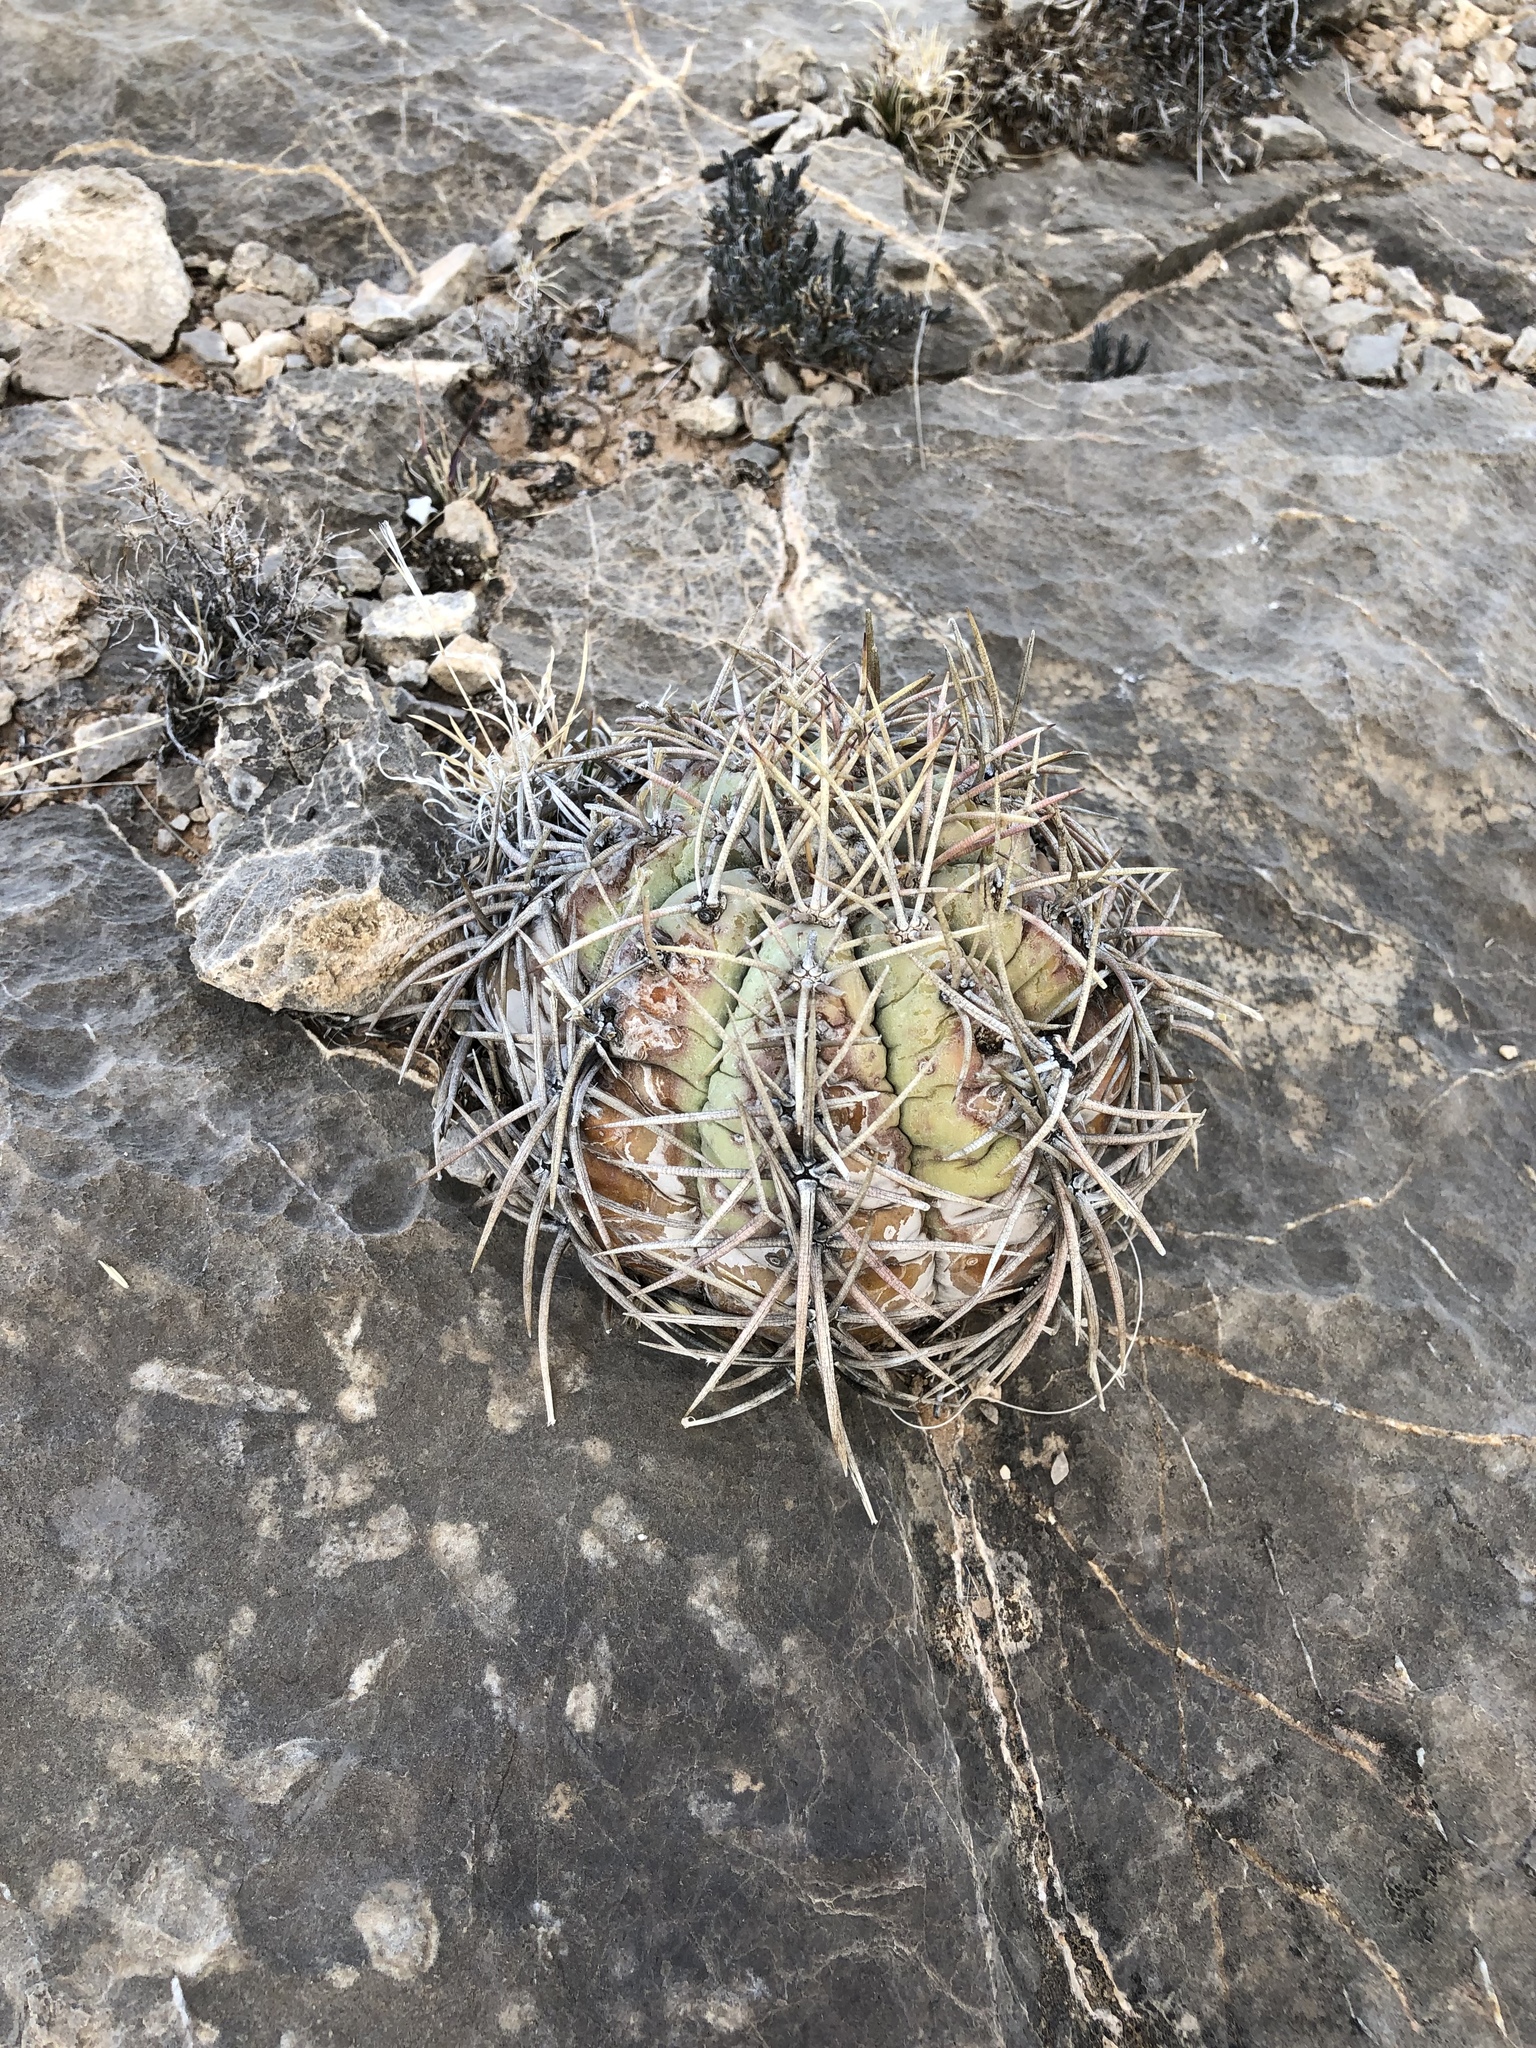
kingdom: Plantae
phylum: Tracheophyta
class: Magnoliopsida
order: Caryophyllales
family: Cactaceae
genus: Echinocactus
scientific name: Echinocactus horizonthalonius
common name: Devilshead
